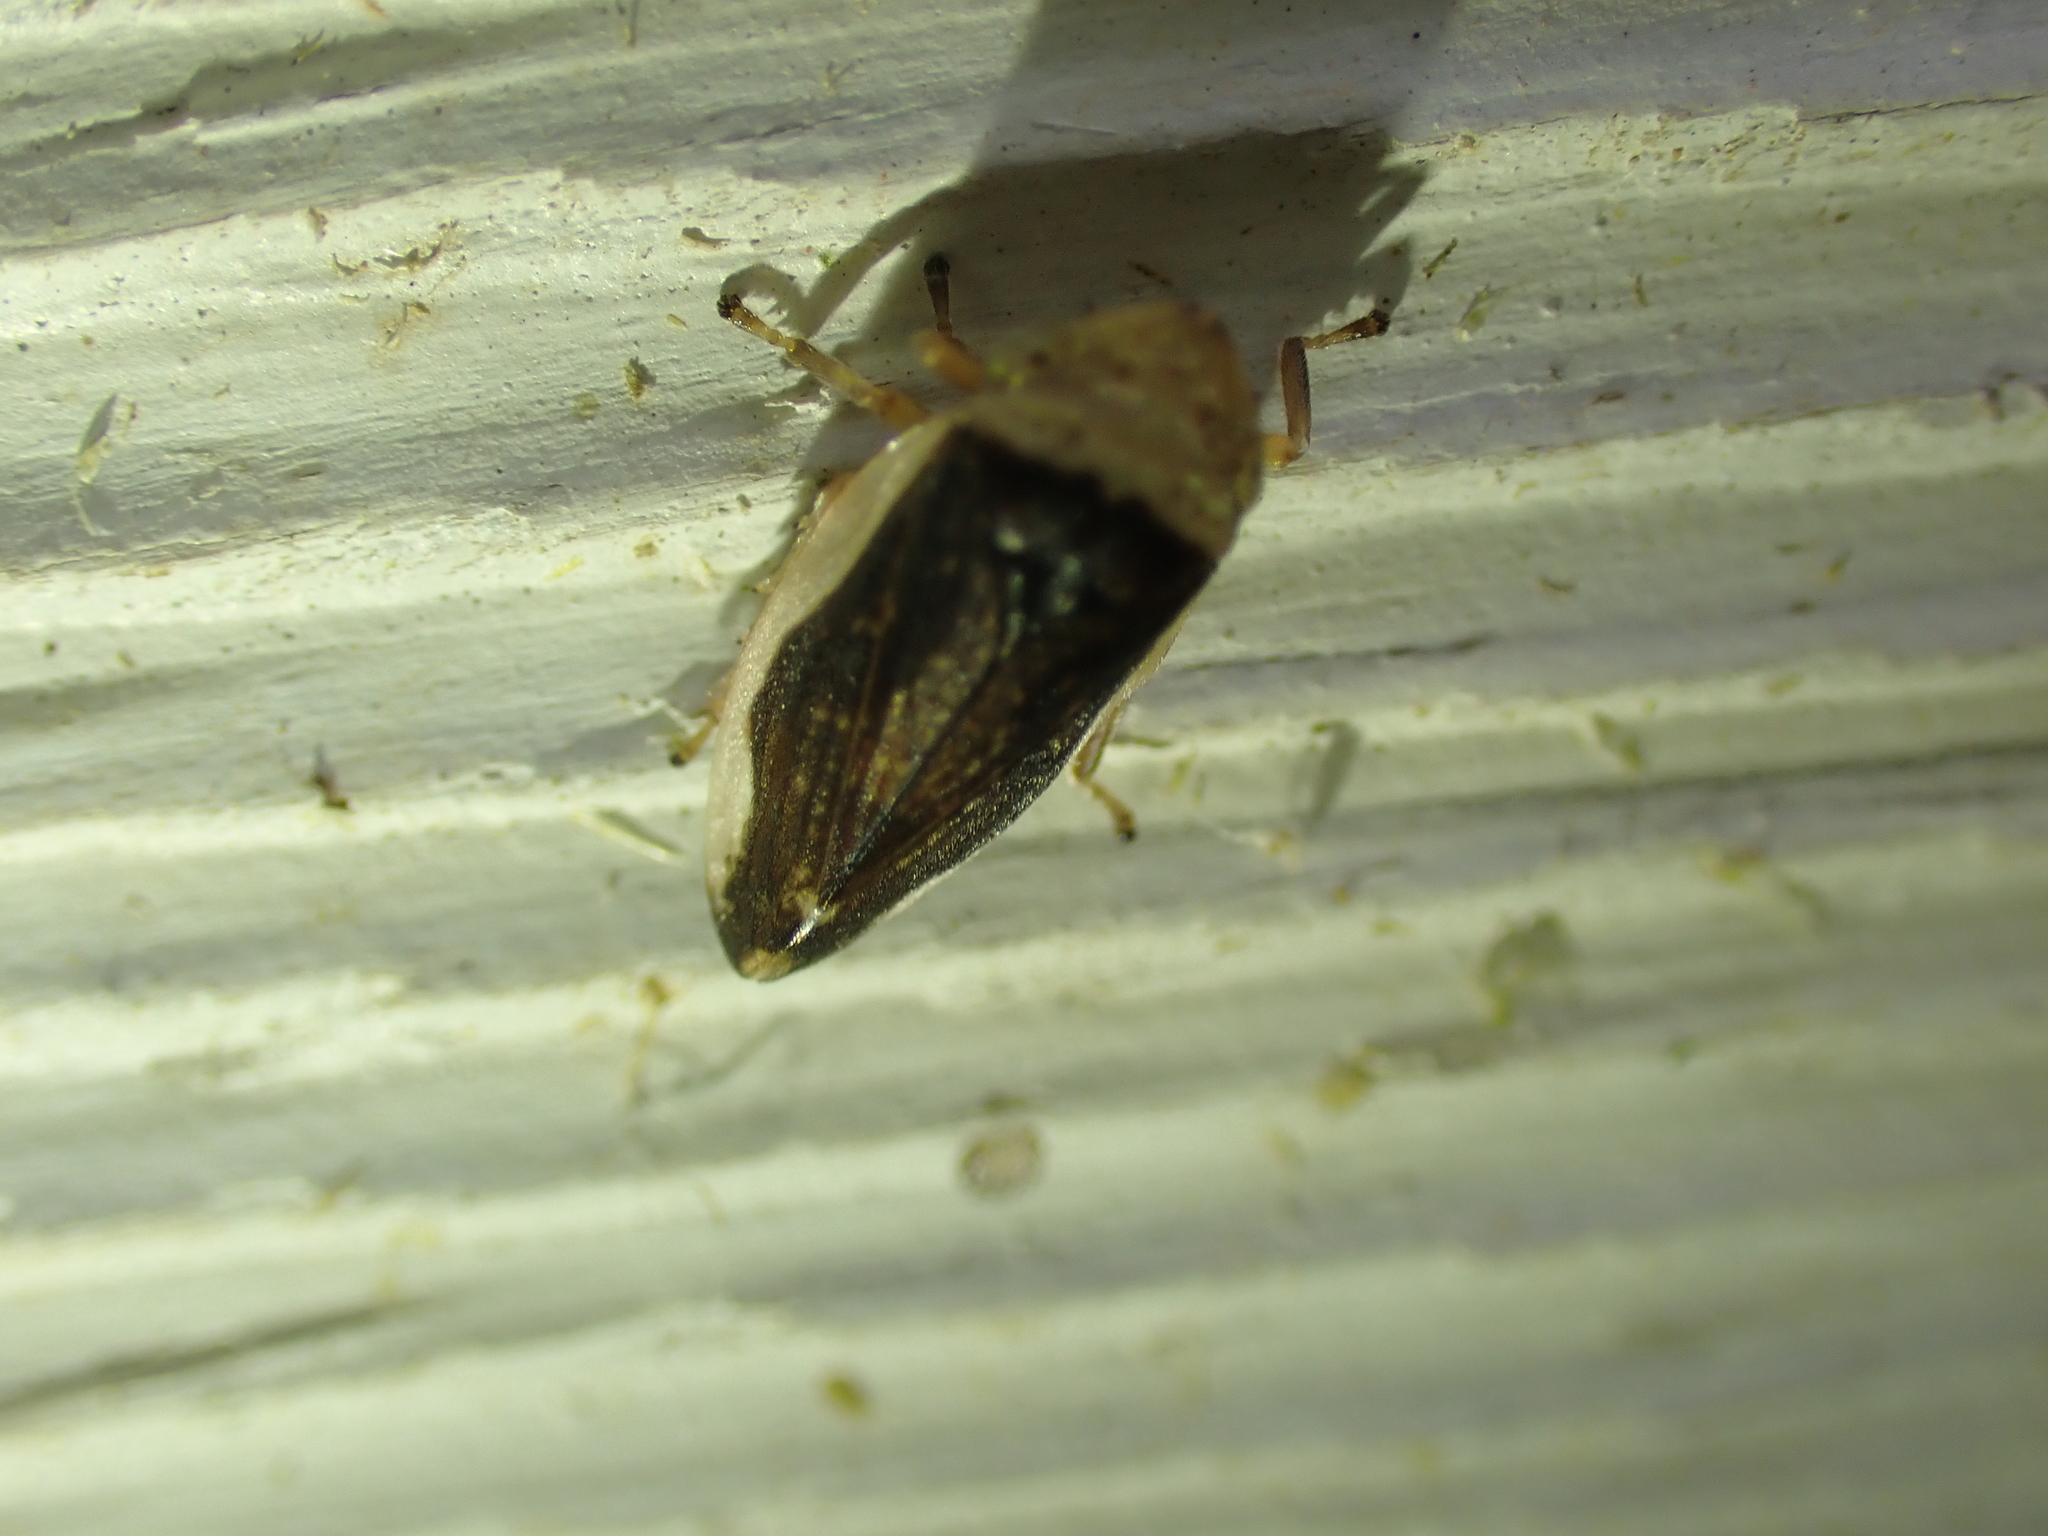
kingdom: Animalia
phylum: Arthropoda
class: Insecta
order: Hemiptera
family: Aphrophoridae
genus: Philaenus
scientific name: Philaenus spumarius
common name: Meadow spittlebug
